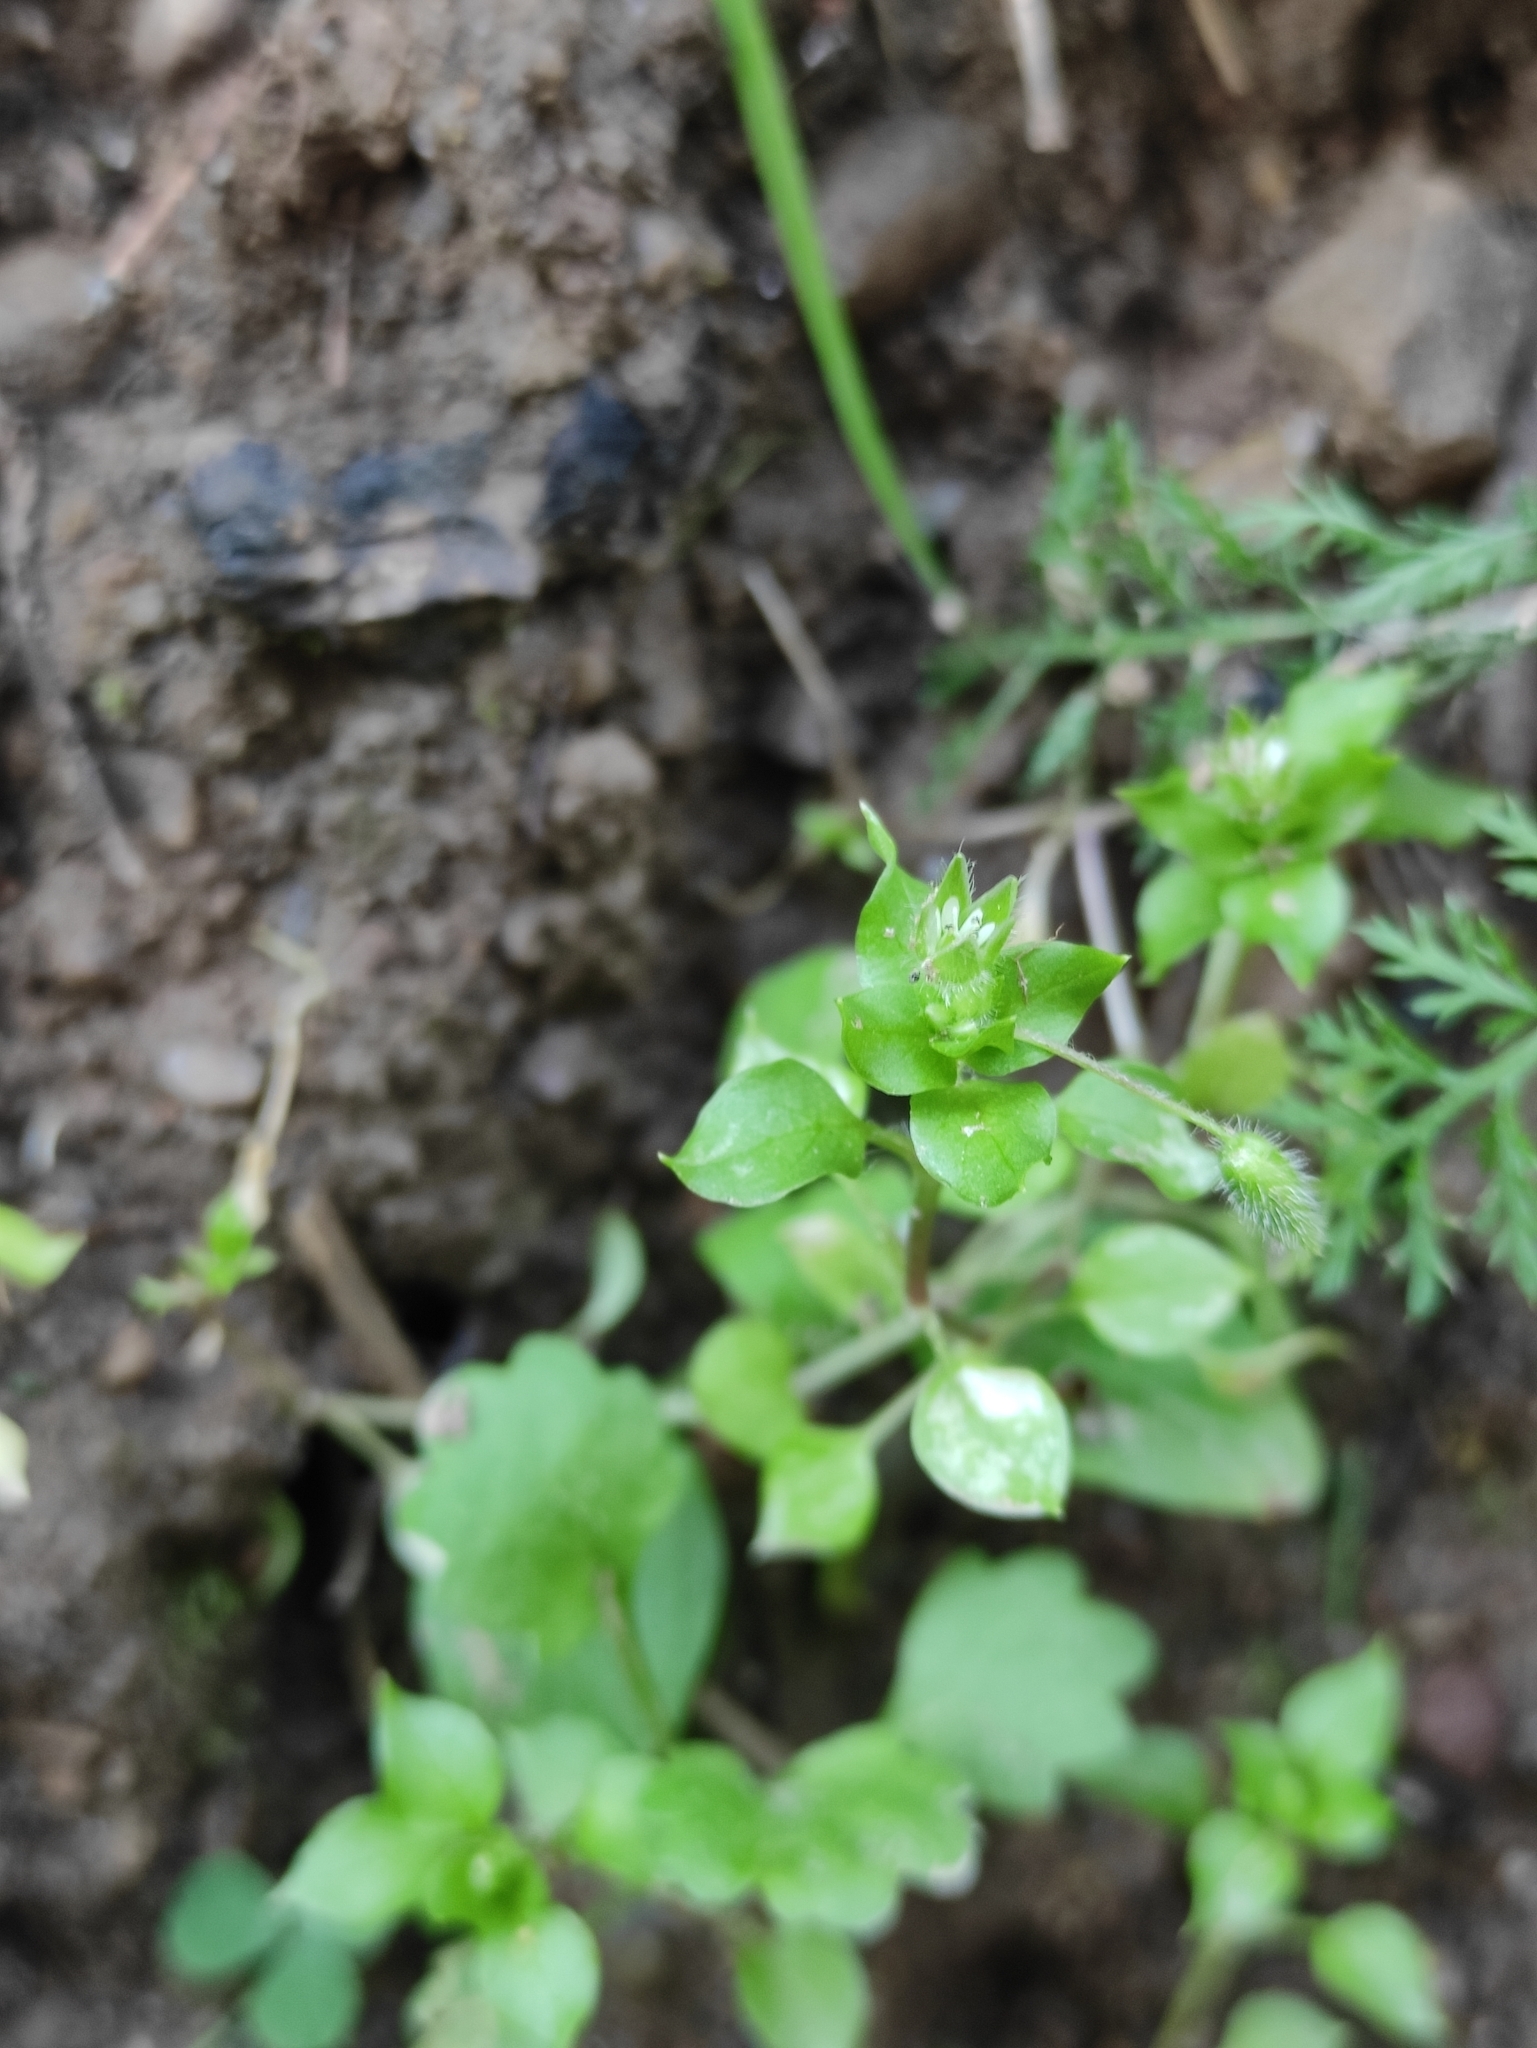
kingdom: Plantae
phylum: Tracheophyta
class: Magnoliopsida
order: Caryophyllales
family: Caryophyllaceae
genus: Stellaria
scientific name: Stellaria media
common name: Common chickweed
